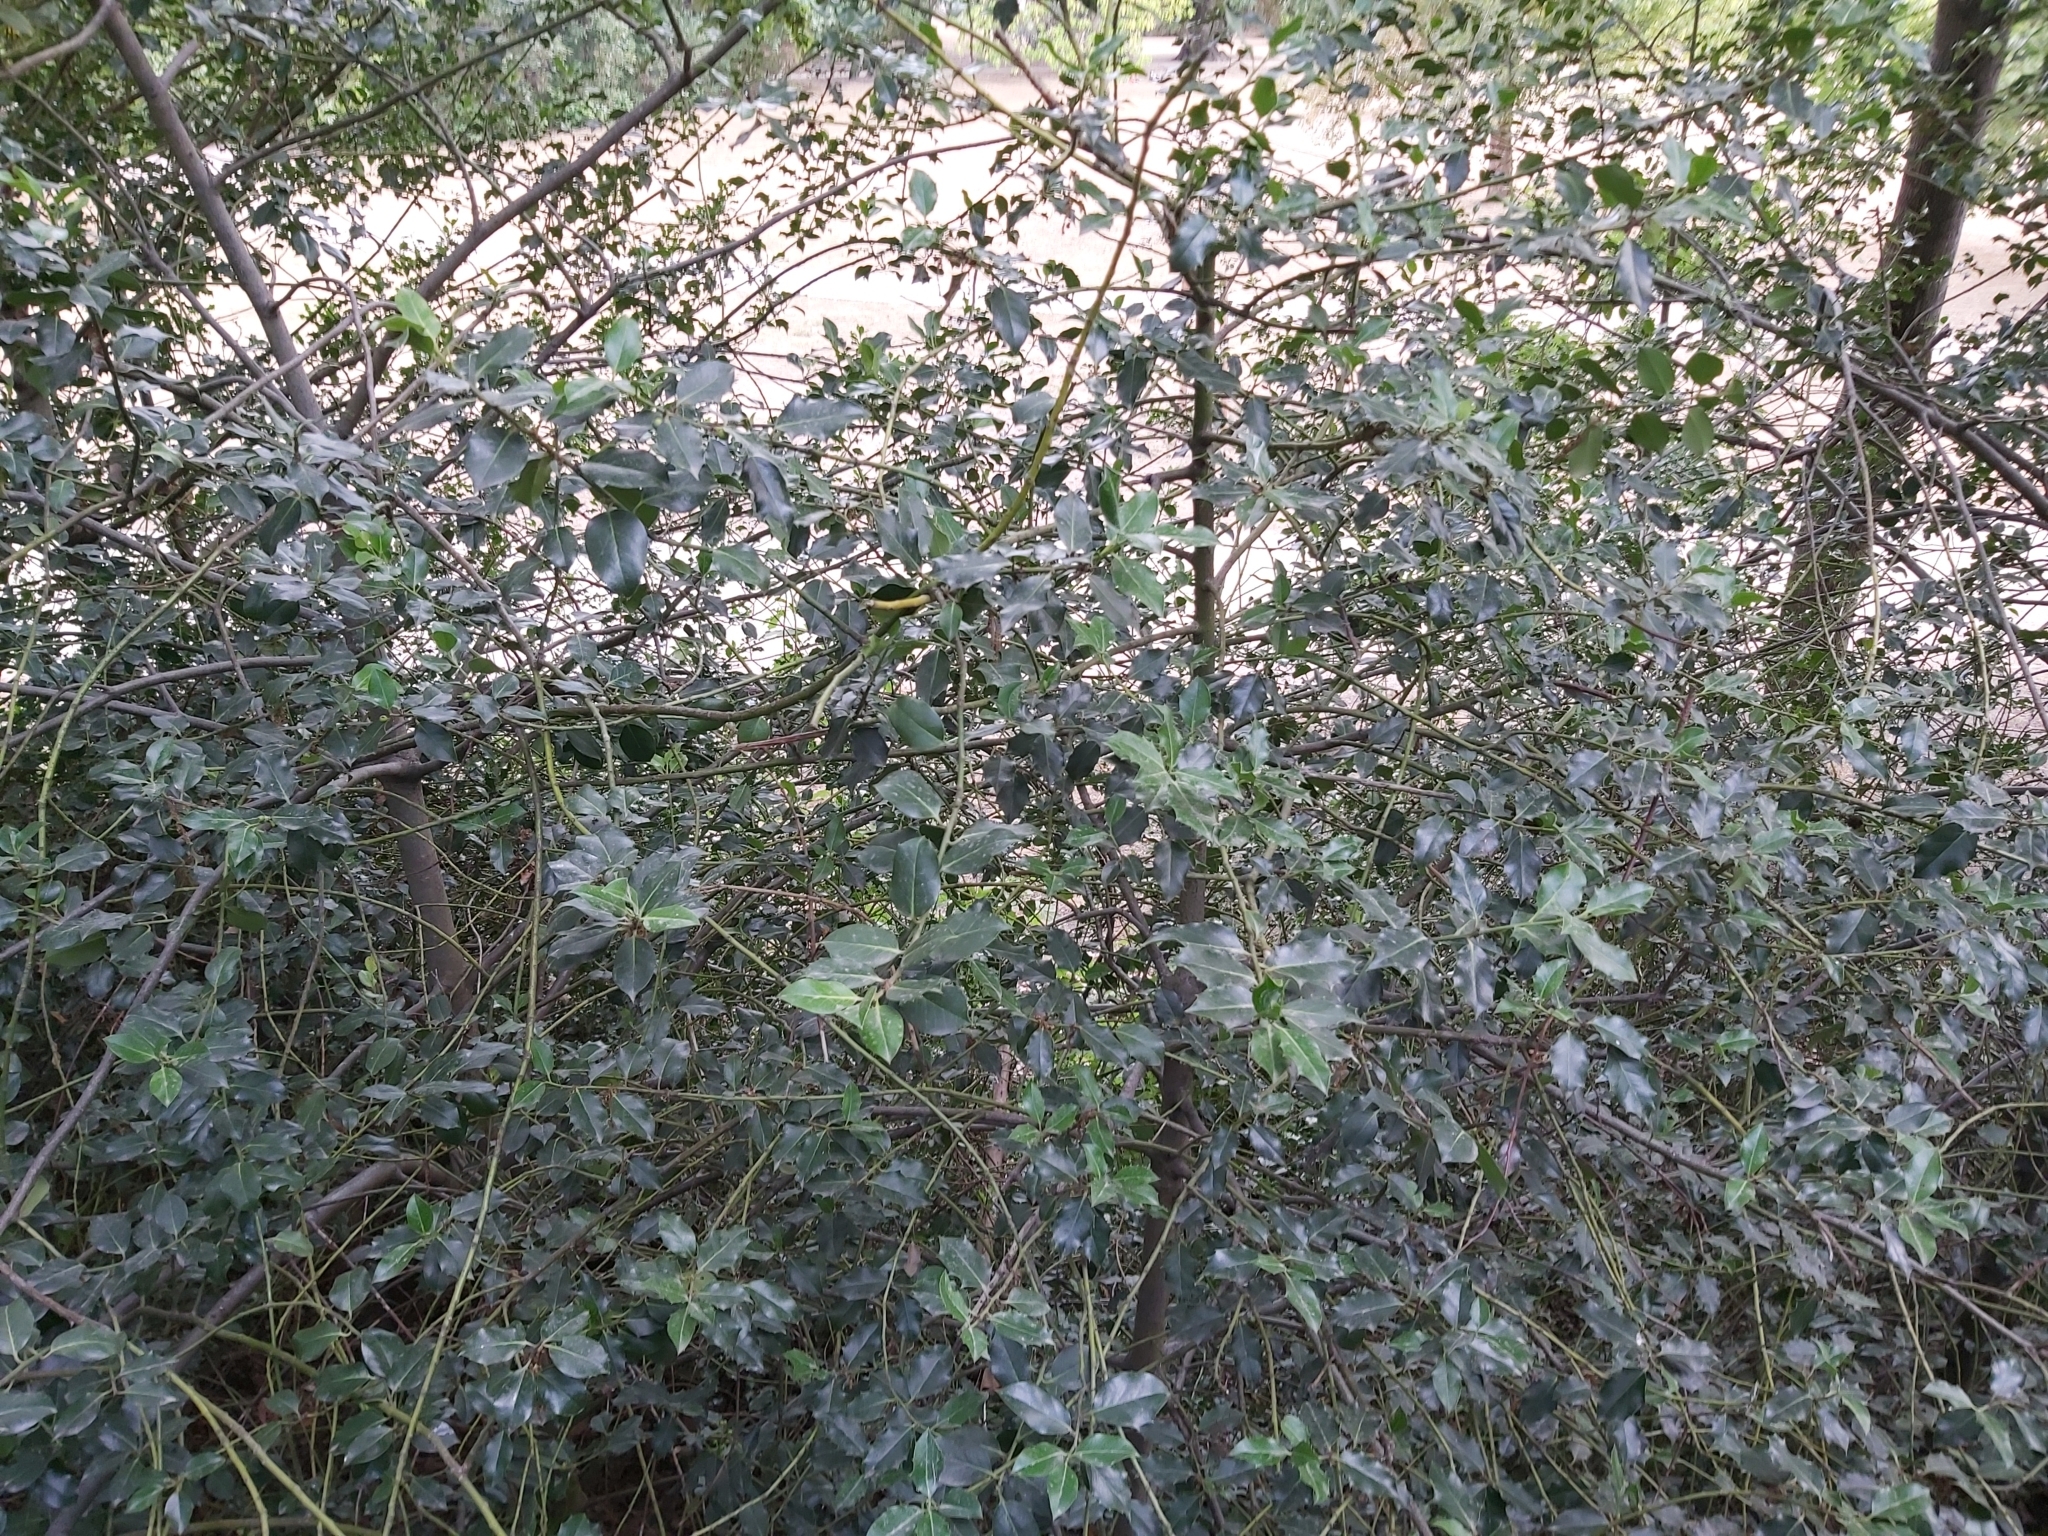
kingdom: Plantae
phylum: Tracheophyta
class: Magnoliopsida
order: Aquifoliales
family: Aquifoliaceae
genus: Ilex
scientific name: Ilex aquifolium
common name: English holly
